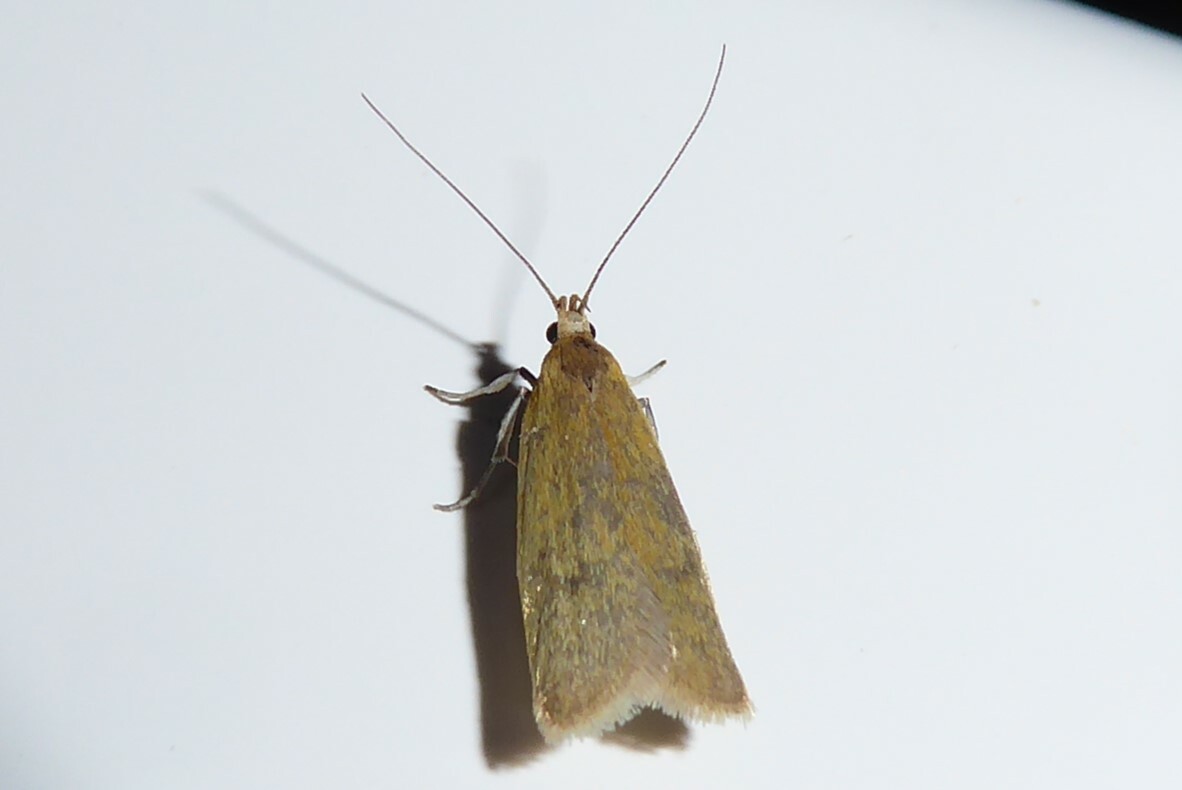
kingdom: Animalia
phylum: Arthropoda
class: Insecta
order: Lepidoptera
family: Oecophoridae
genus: Gymnobathra
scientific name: Gymnobathra parca
